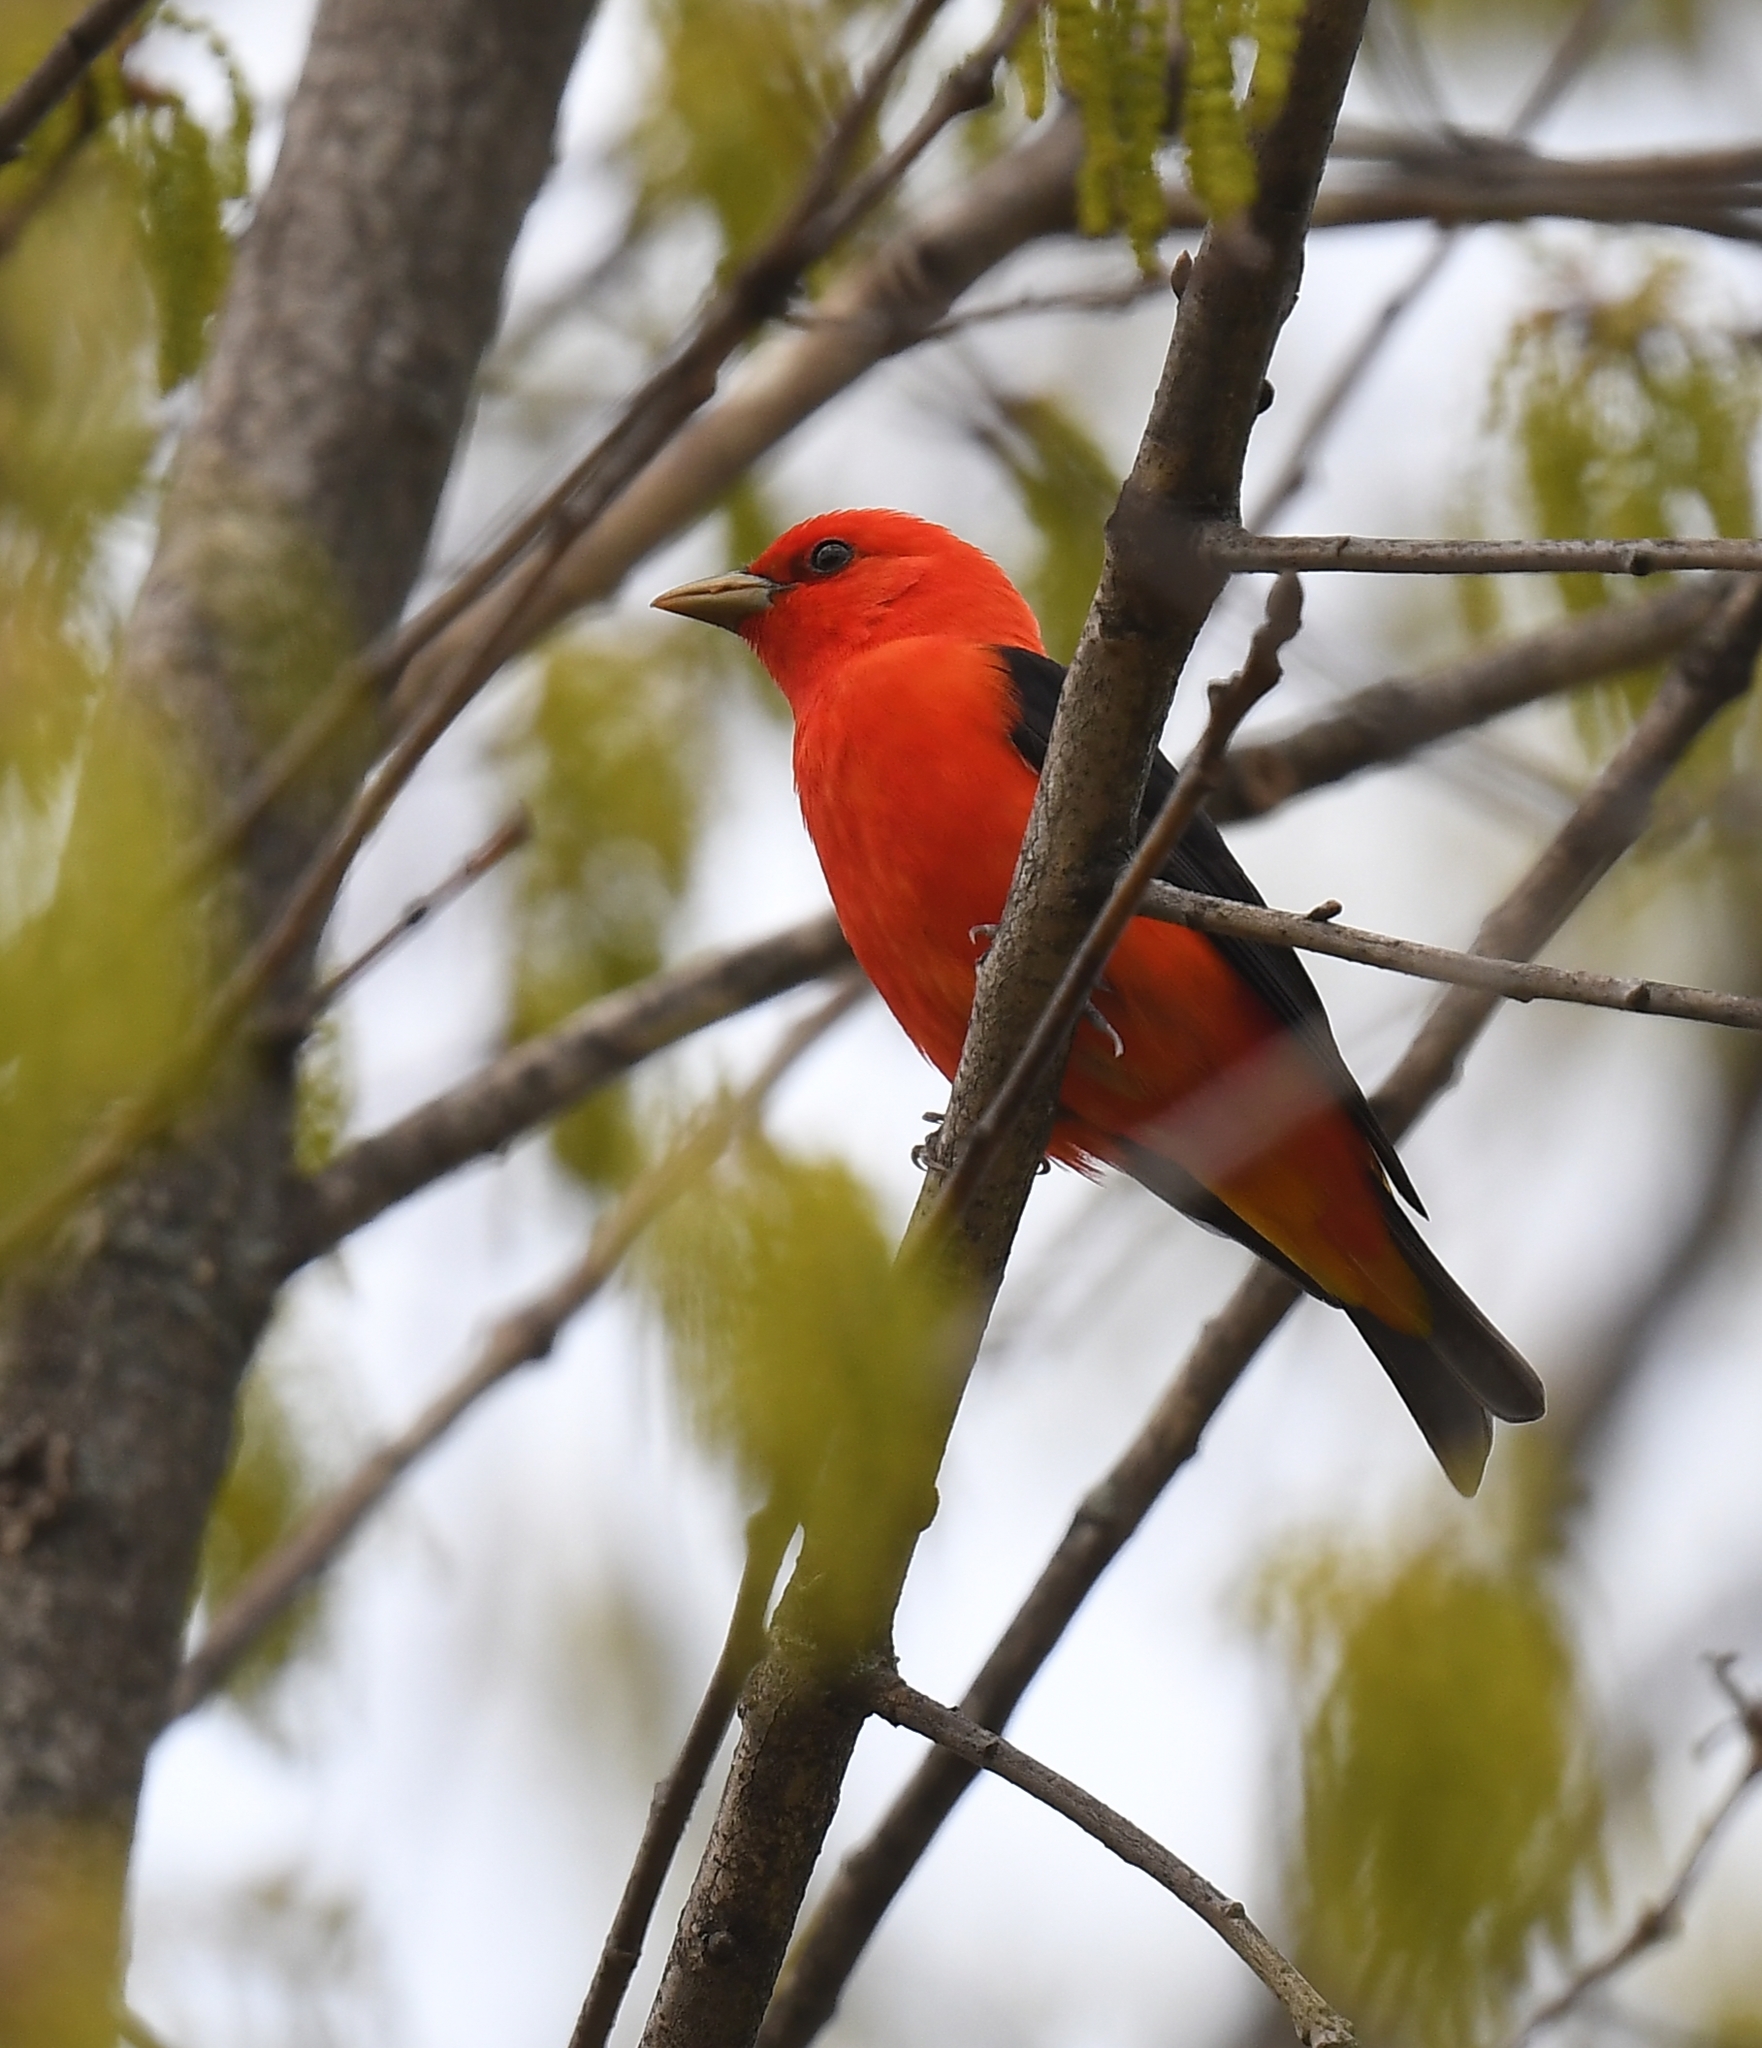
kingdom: Animalia
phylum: Chordata
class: Aves
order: Passeriformes
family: Cardinalidae
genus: Piranga
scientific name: Piranga olivacea
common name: Scarlet tanager
